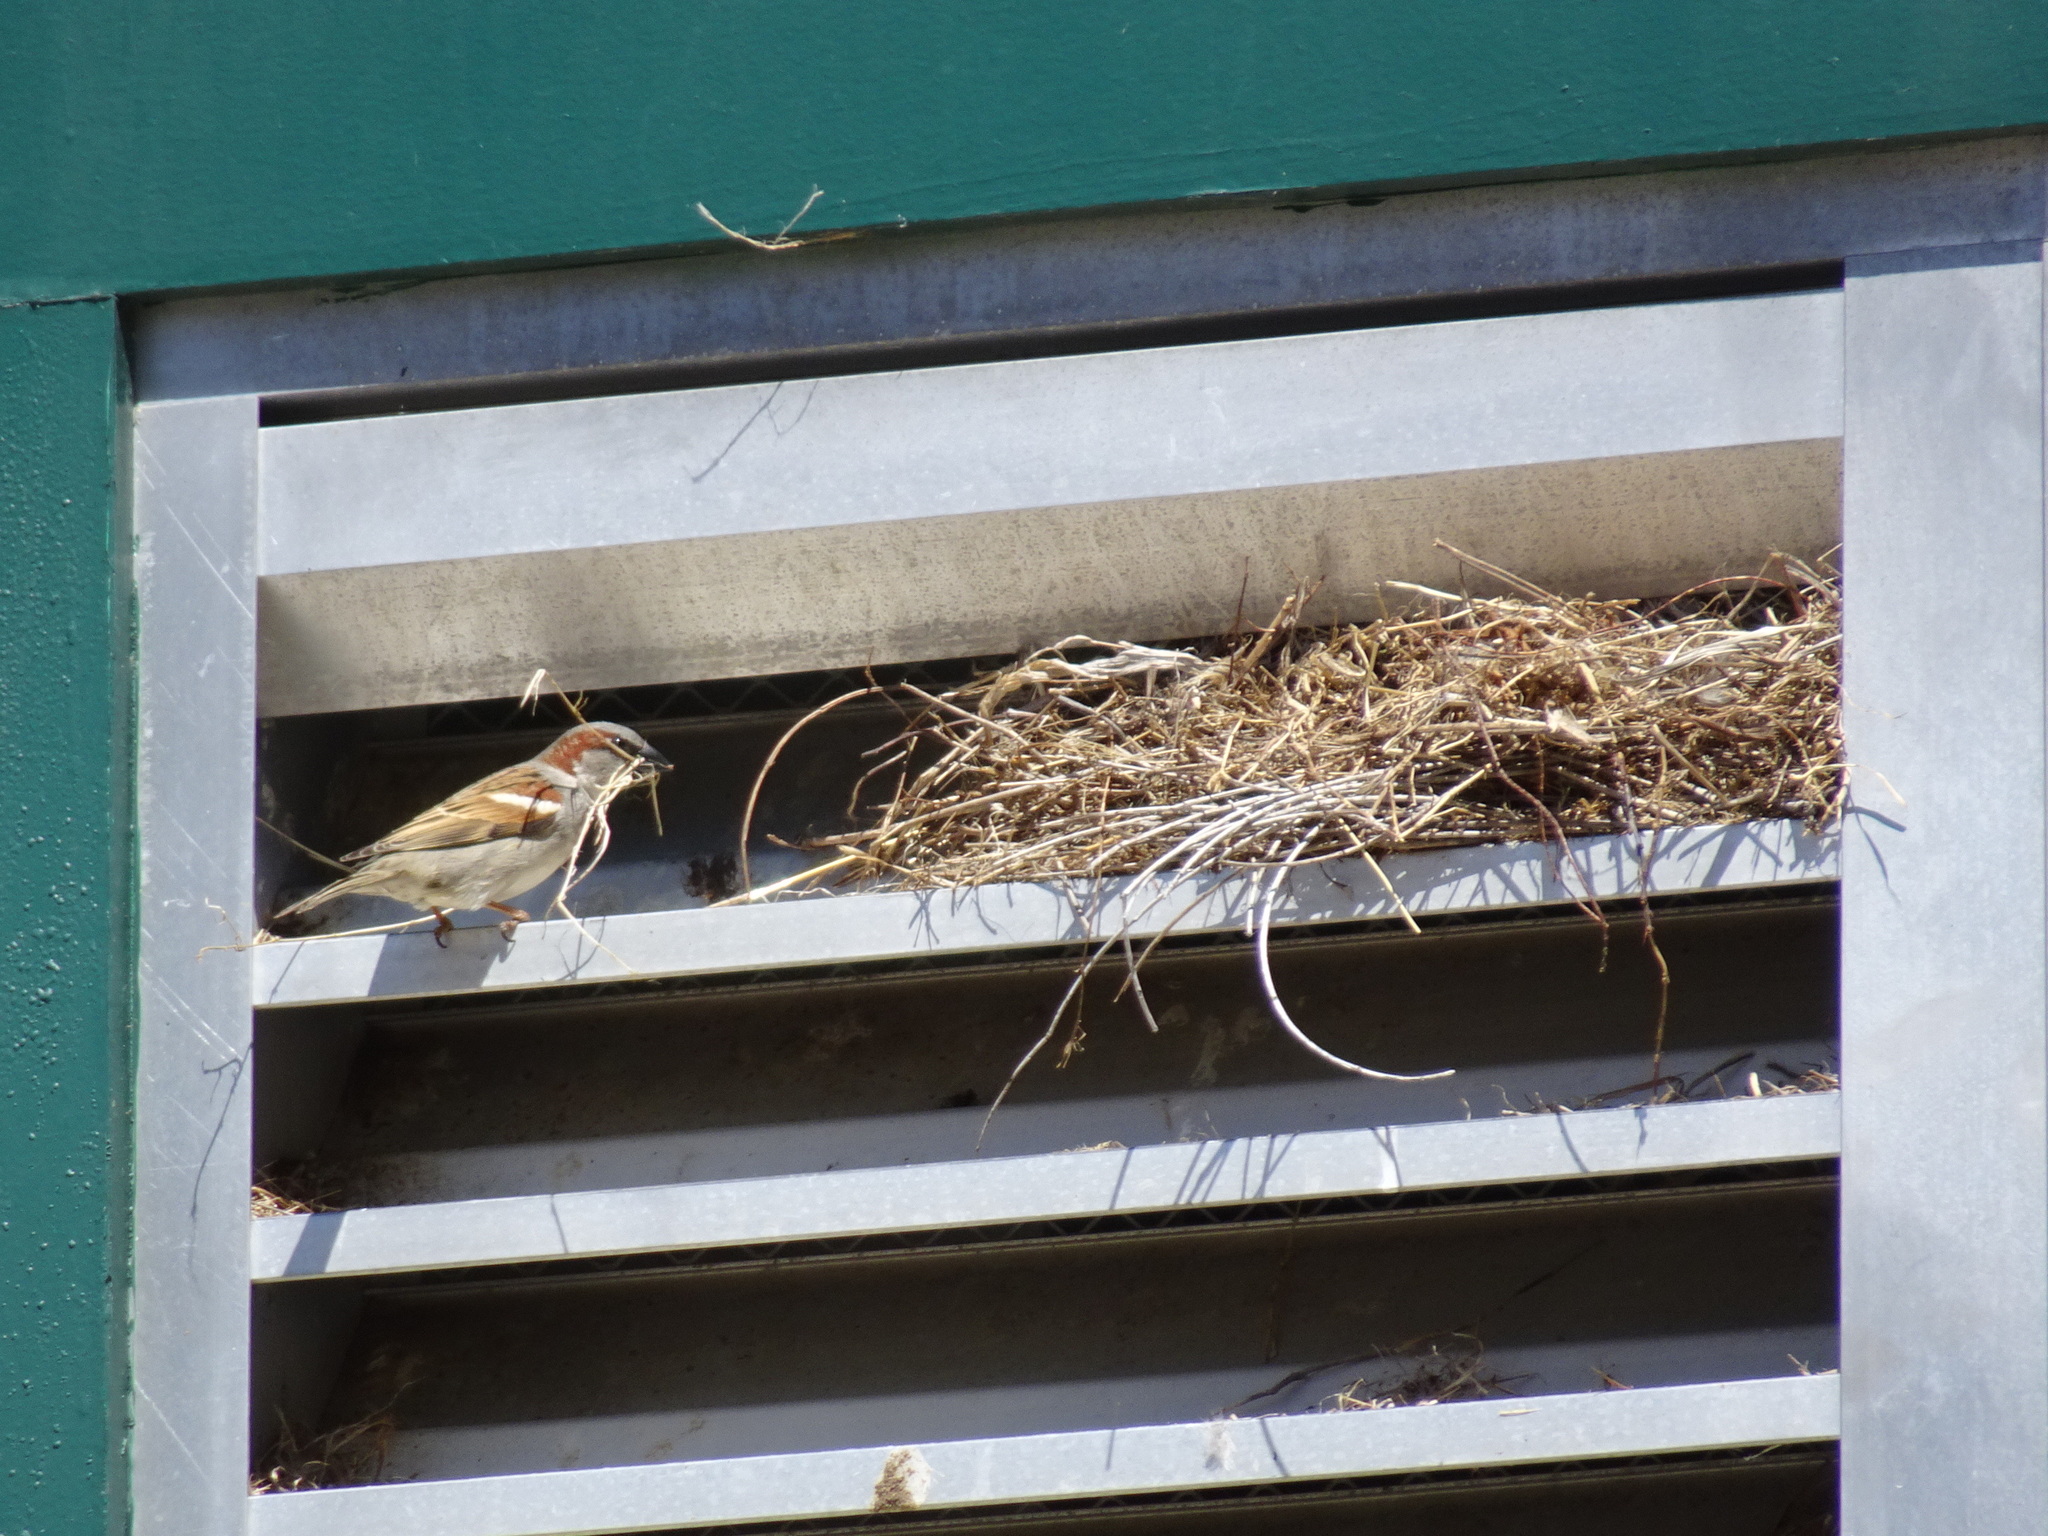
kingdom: Animalia
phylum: Chordata
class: Aves
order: Passeriformes
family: Passeridae
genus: Passer
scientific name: Passer domesticus
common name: House sparrow
